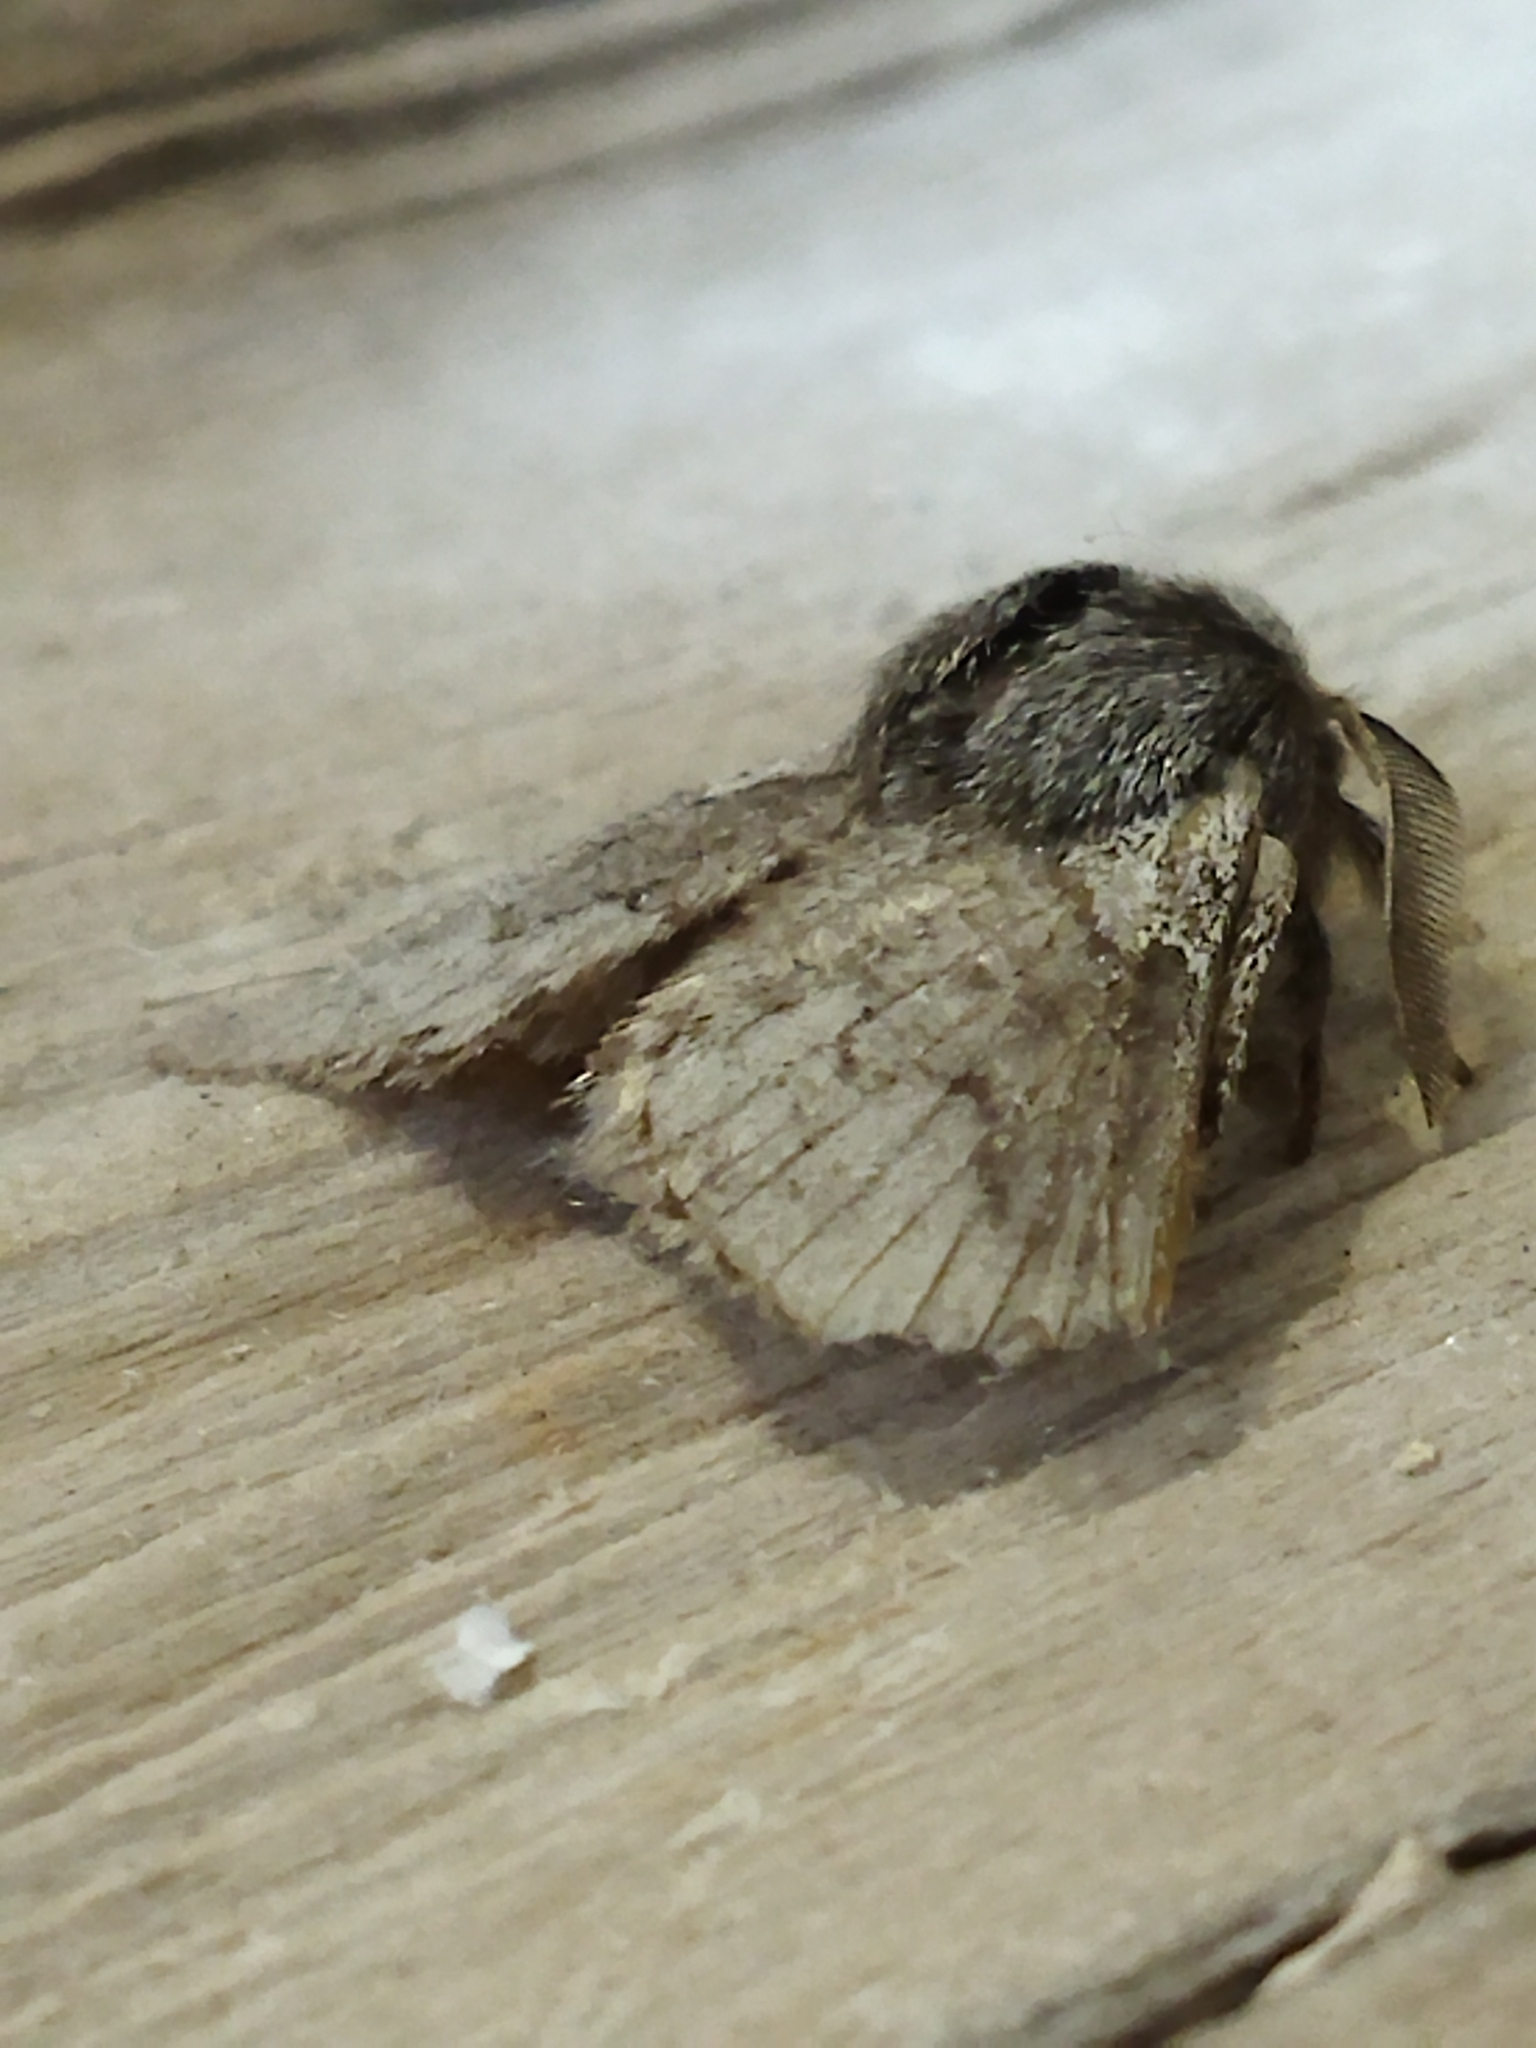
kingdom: Animalia
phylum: Arthropoda
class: Insecta
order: Lepidoptera
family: Lasiocampidae
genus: Trichiura
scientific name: Trichiura crataegi
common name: Pale eggar
